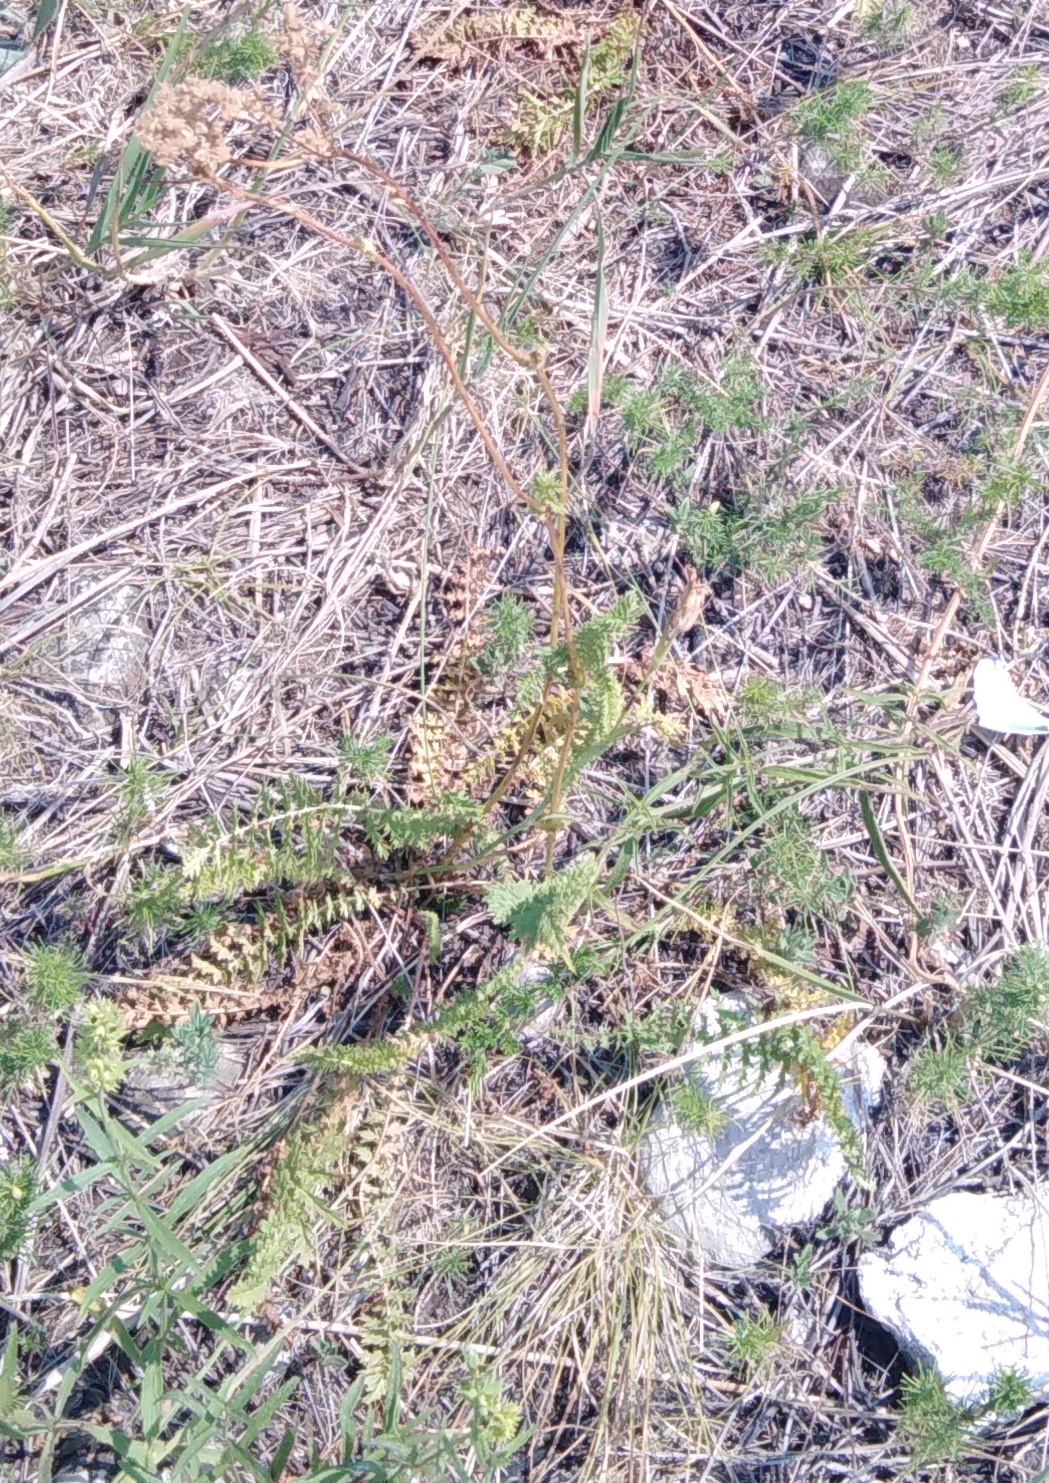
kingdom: Plantae
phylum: Tracheophyta
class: Magnoliopsida
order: Rosales
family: Rosaceae
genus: Filipendula
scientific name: Filipendula vulgaris
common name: Dropwort
